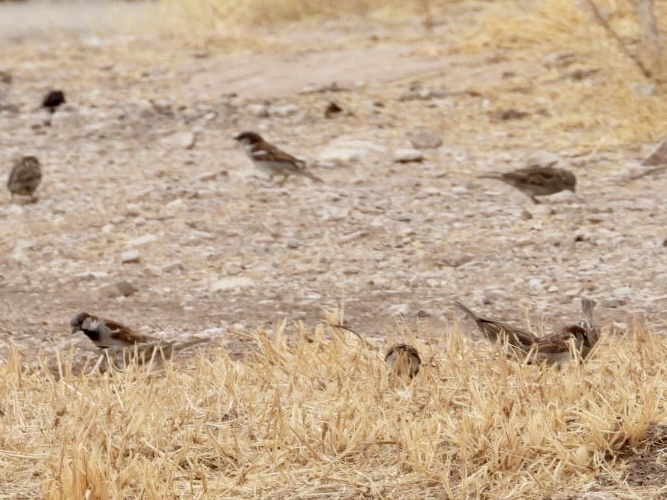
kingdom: Animalia
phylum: Chordata
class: Aves
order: Passeriformes
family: Passeridae
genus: Passer
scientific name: Passer domesticus
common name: House sparrow
